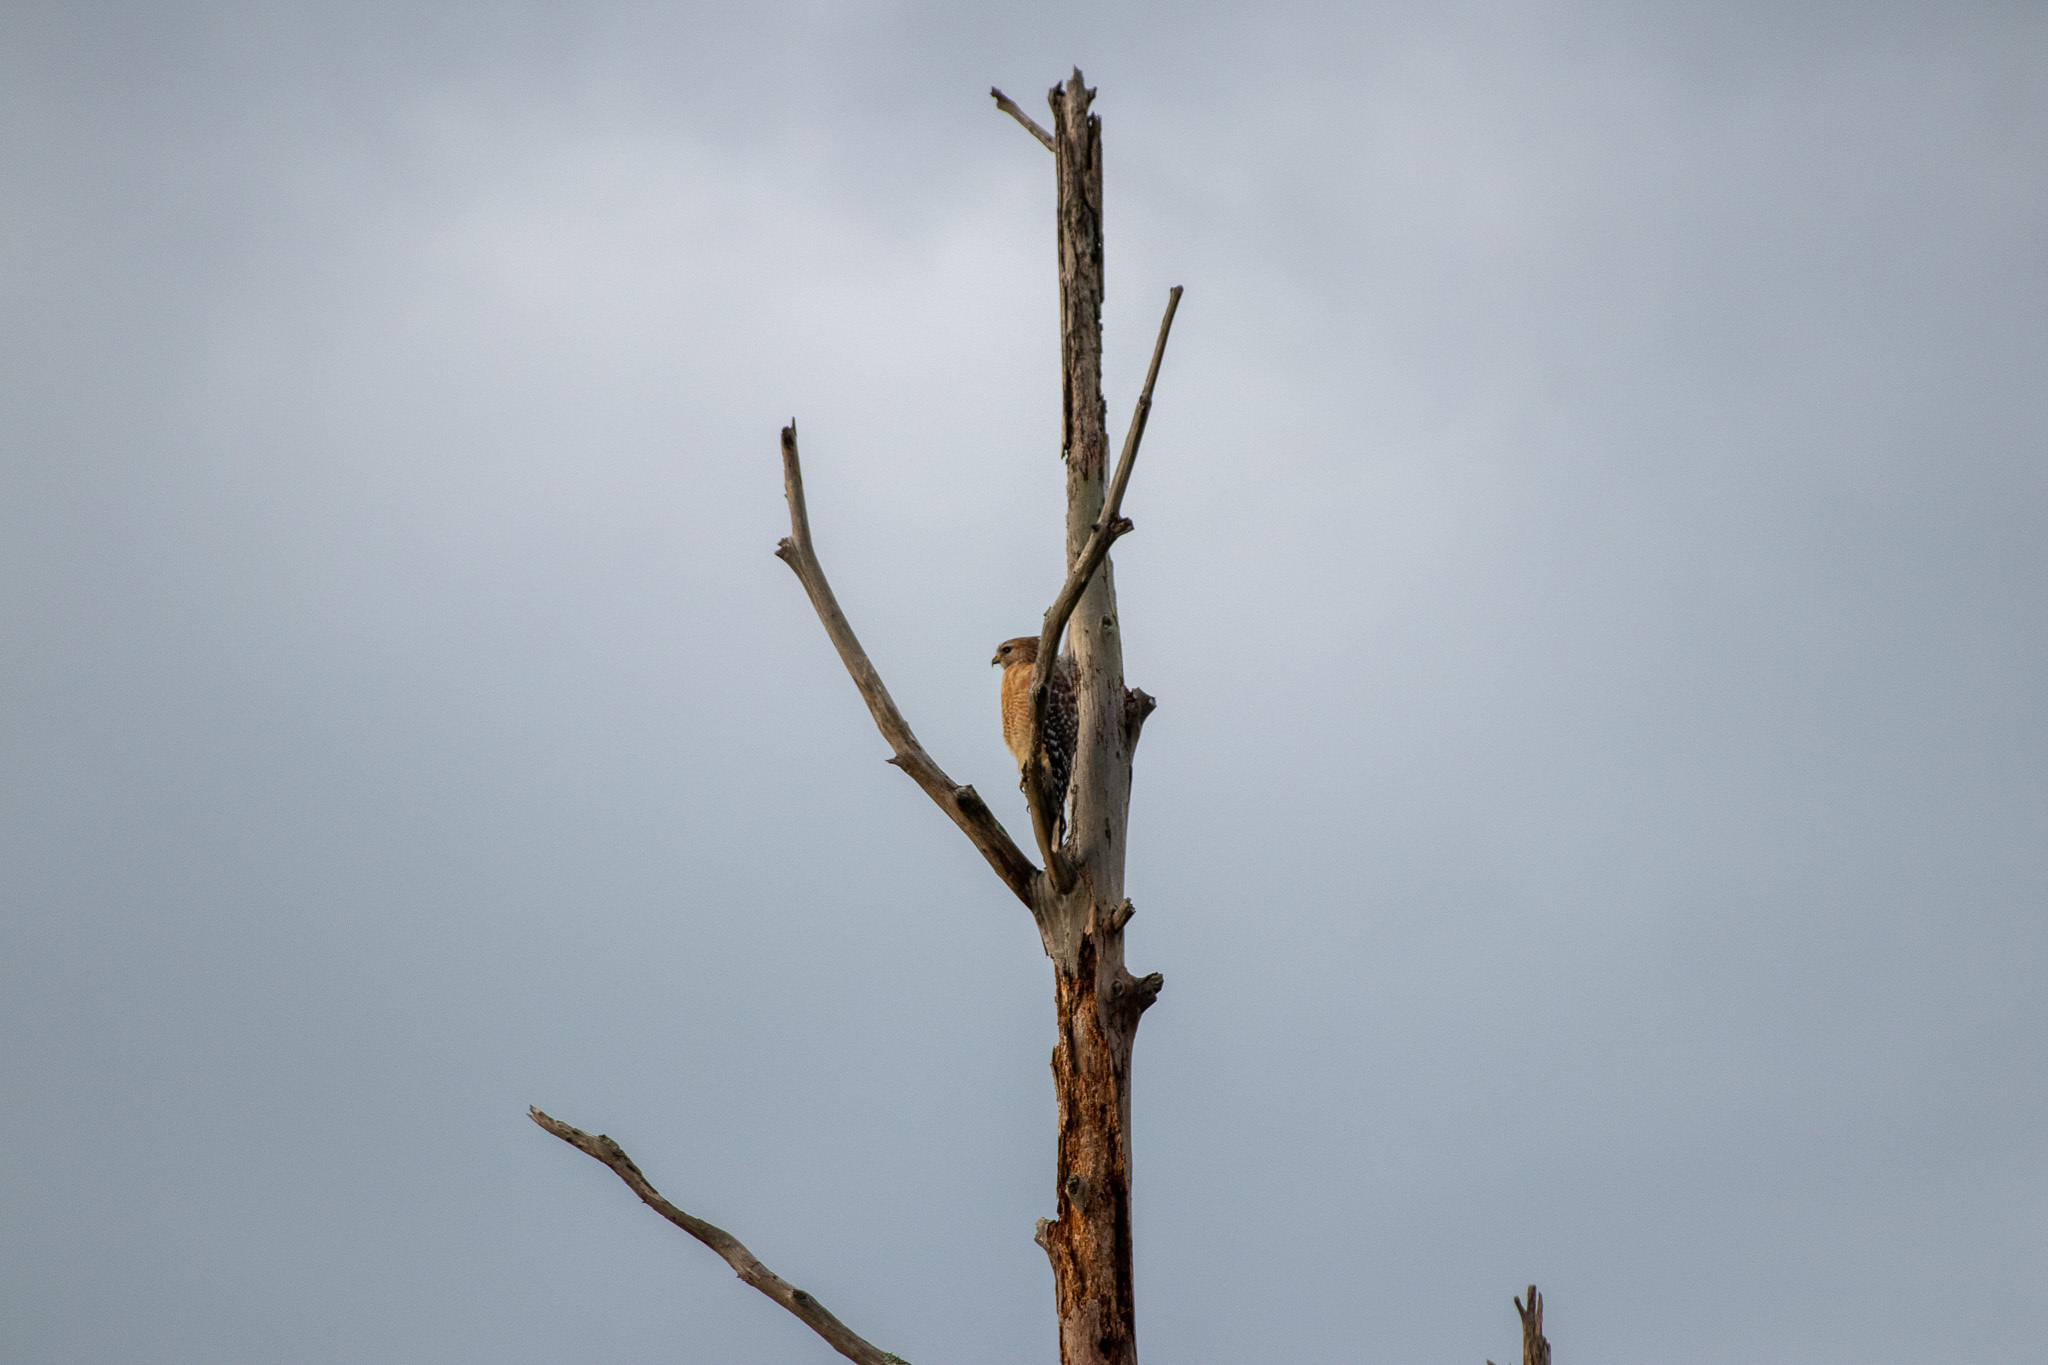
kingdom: Animalia
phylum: Chordata
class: Aves
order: Accipitriformes
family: Accipitridae
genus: Buteo
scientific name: Buteo lineatus
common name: Red-shouldered hawk
